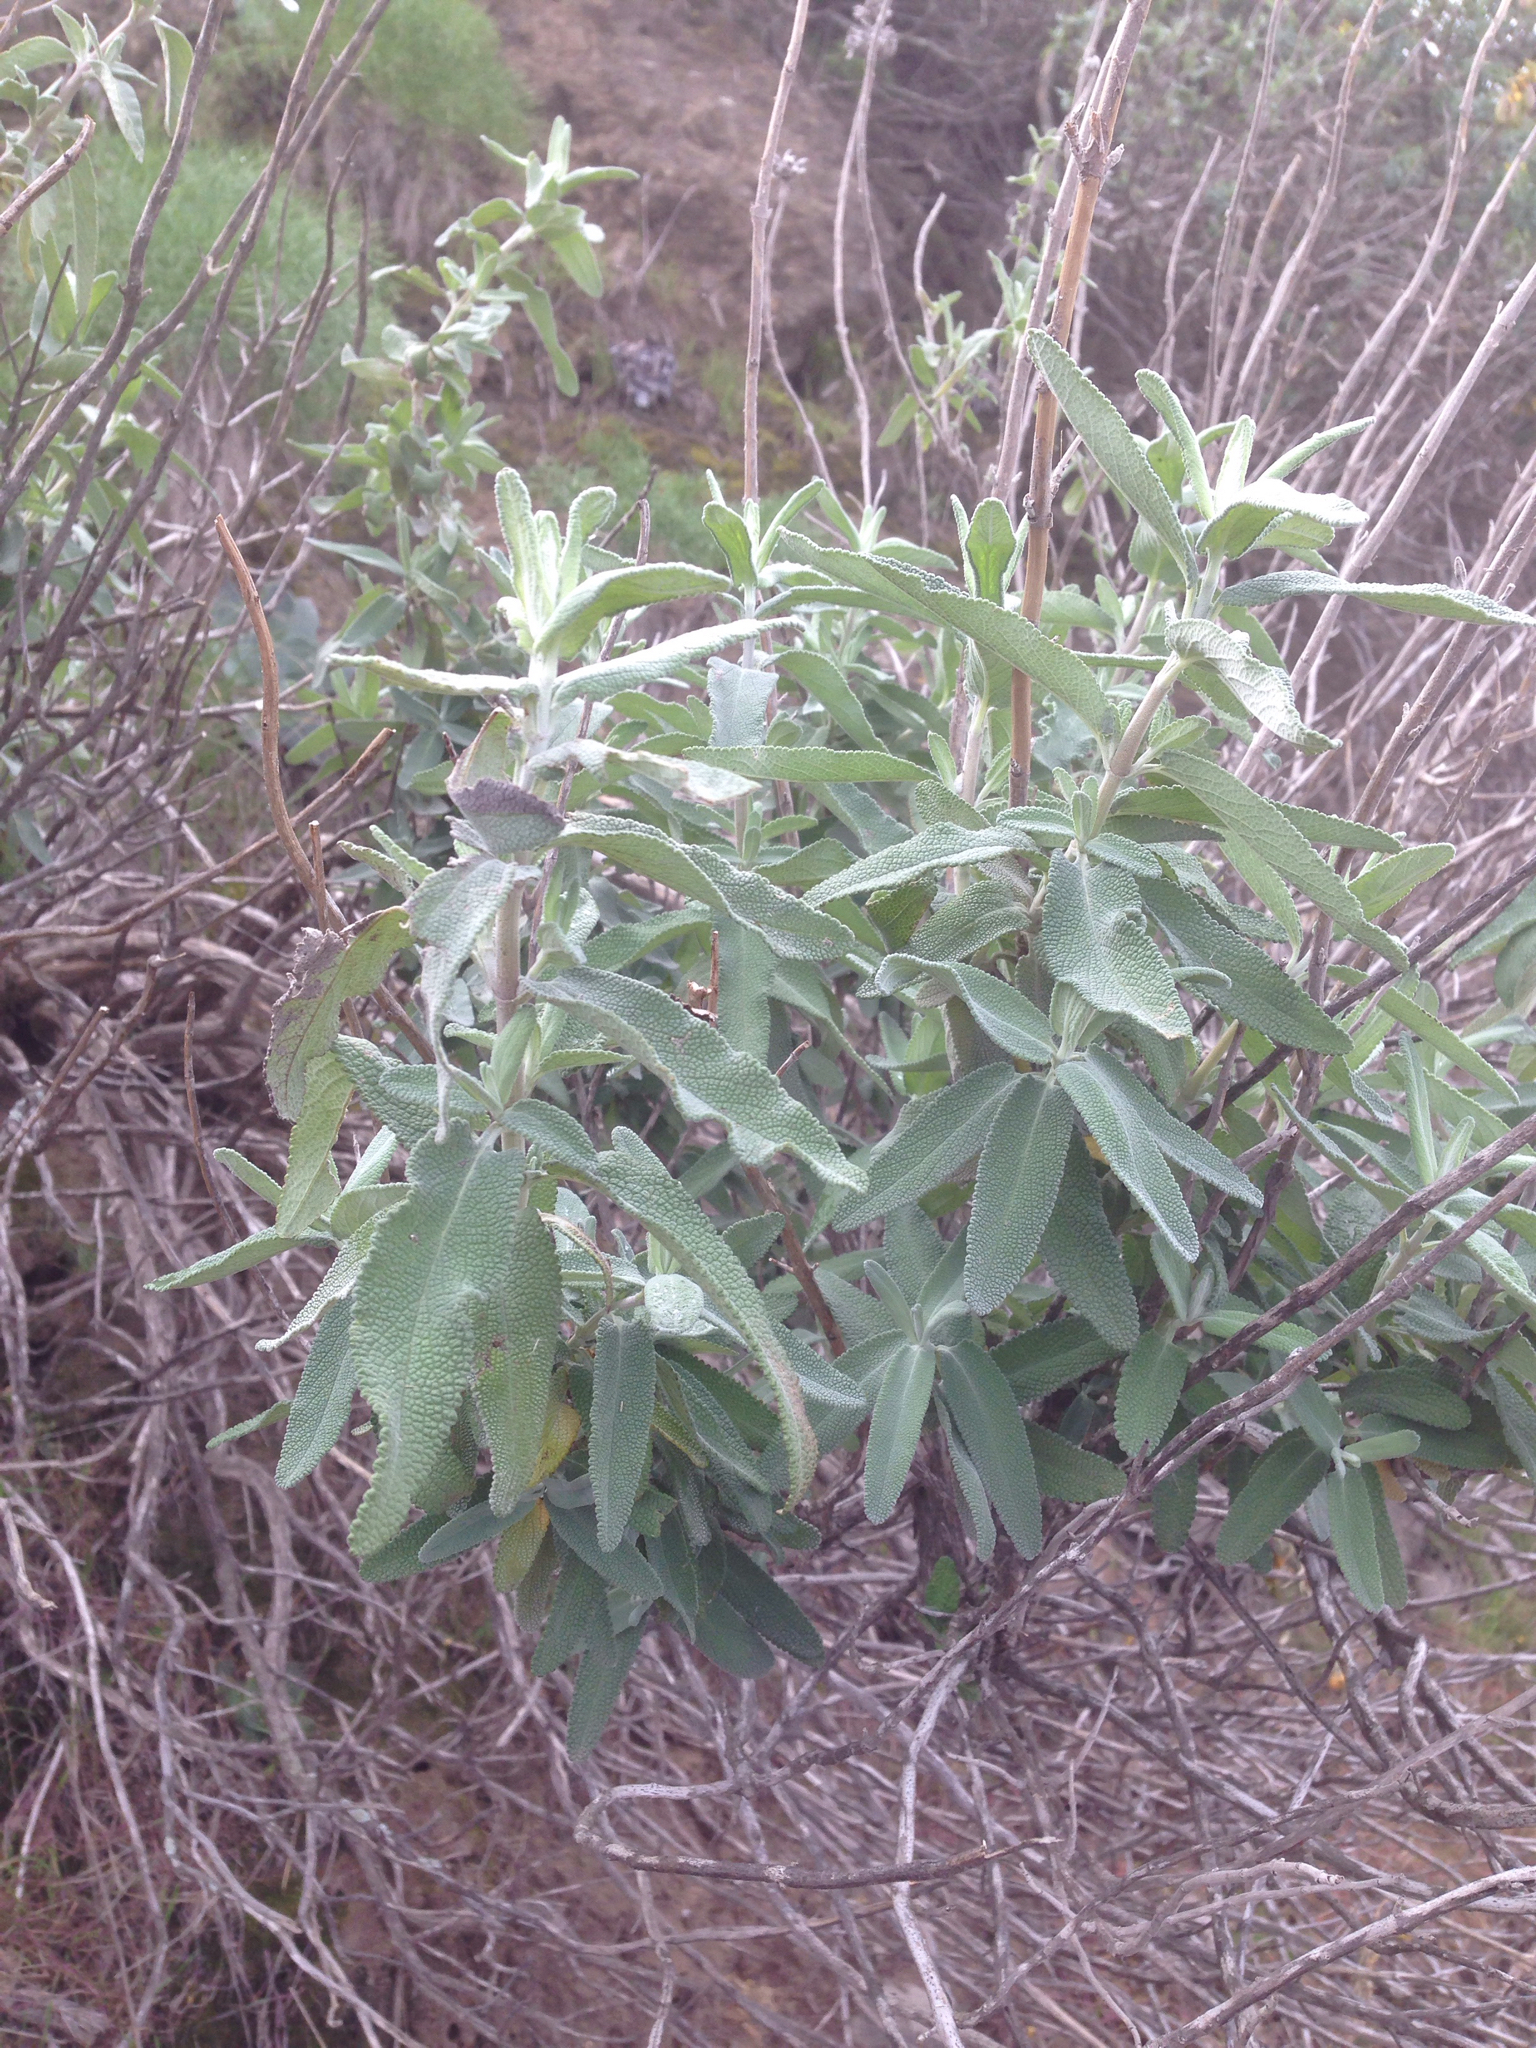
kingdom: Plantae
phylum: Tracheophyta
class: Magnoliopsida
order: Lamiales
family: Lamiaceae
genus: Salvia
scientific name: Salvia leucophylla
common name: Purple sage
